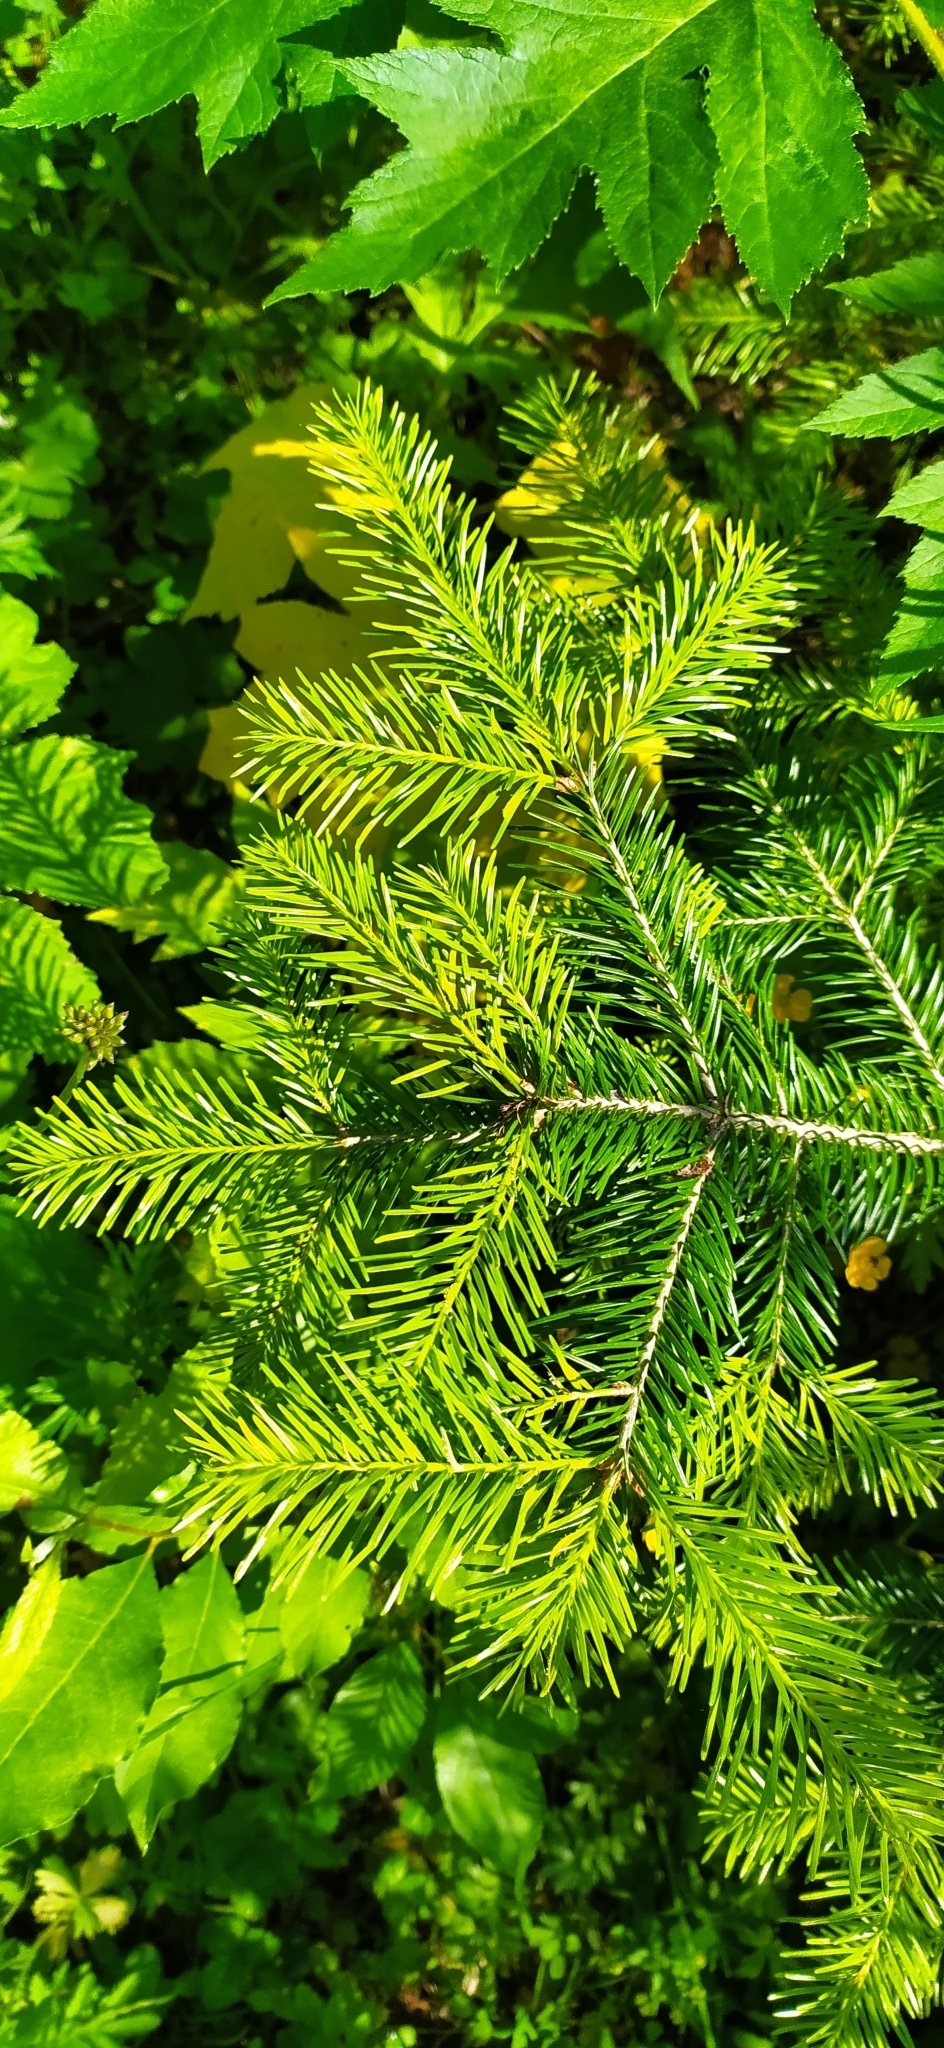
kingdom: Plantae
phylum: Tracheophyta
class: Pinopsida
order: Pinales
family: Pinaceae
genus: Abies
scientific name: Abies sibirica
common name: Siberian fir
